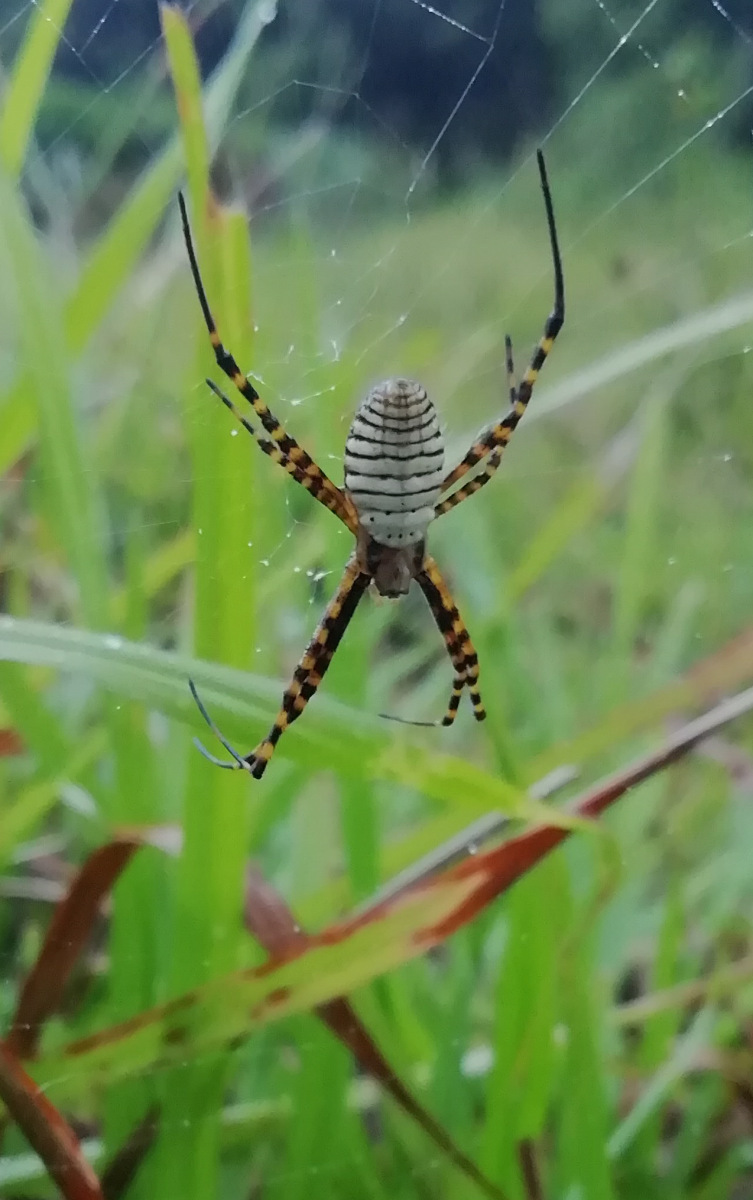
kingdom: Animalia
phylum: Arthropoda
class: Arachnida
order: Araneae
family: Araneidae
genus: Argiope
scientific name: Argiope trifasciata
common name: Banded garden spider
